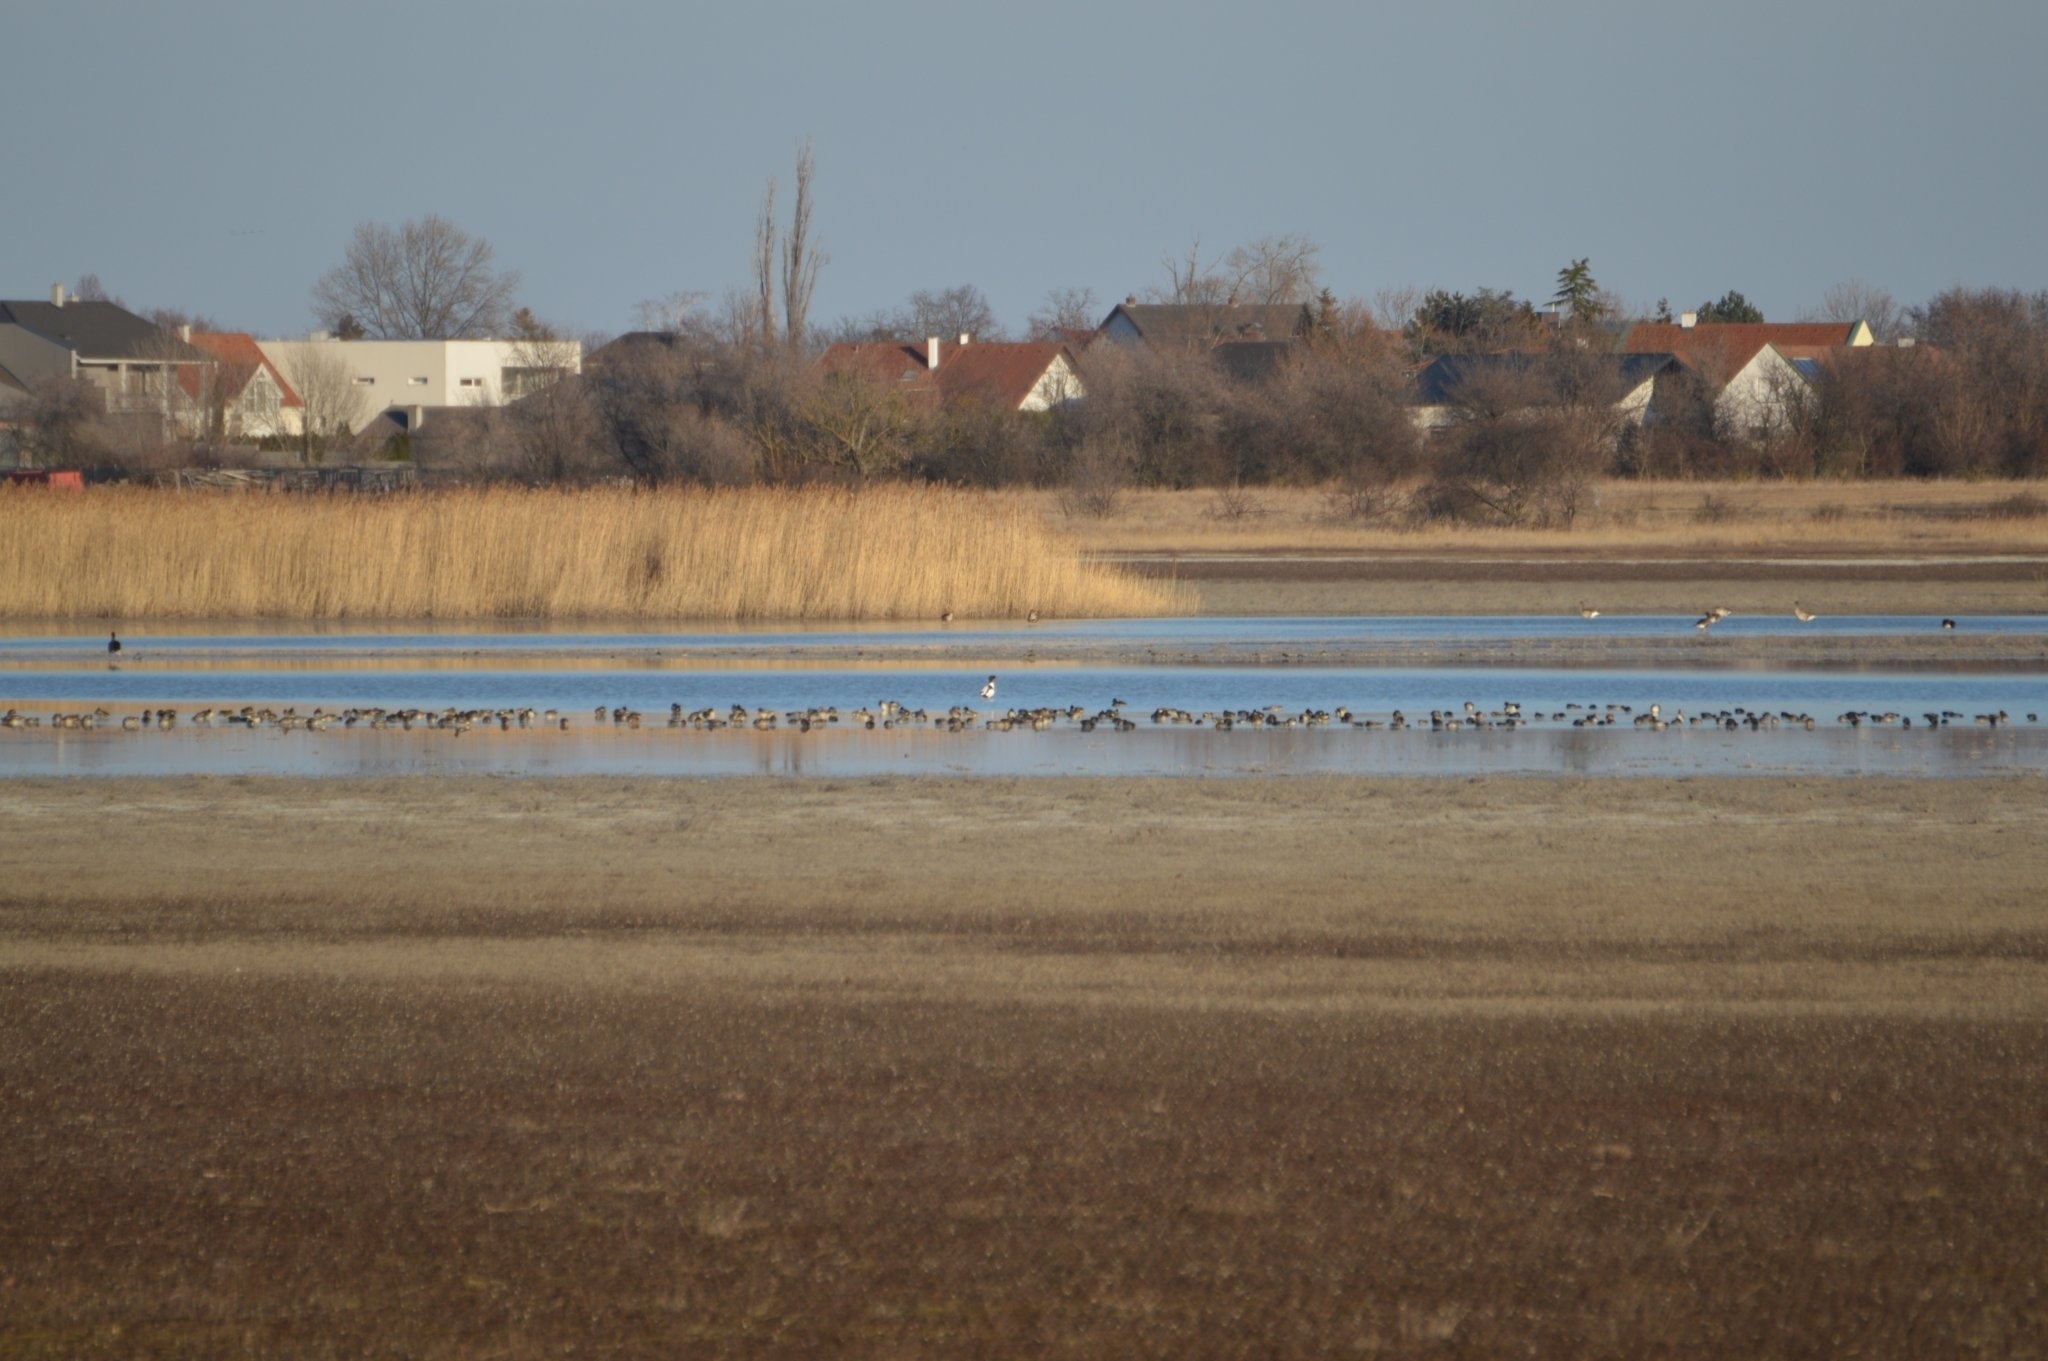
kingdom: Animalia
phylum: Chordata
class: Aves
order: Anseriformes
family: Anatidae
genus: Anas
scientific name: Anas crecca
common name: Eurasian teal
